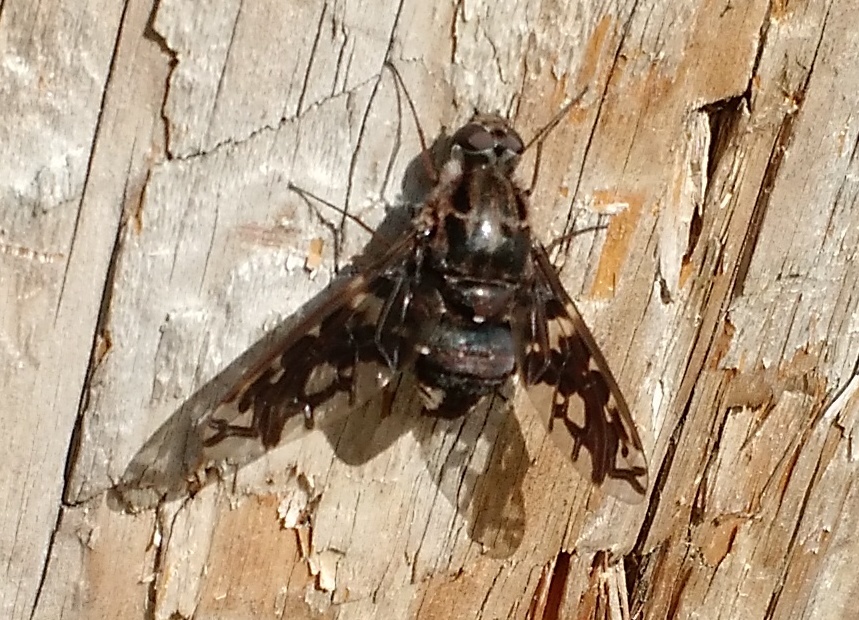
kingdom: Animalia
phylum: Arthropoda
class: Insecta
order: Diptera
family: Bombyliidae
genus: Xenox
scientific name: Xenox tigrinus
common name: Tiger bee fly
